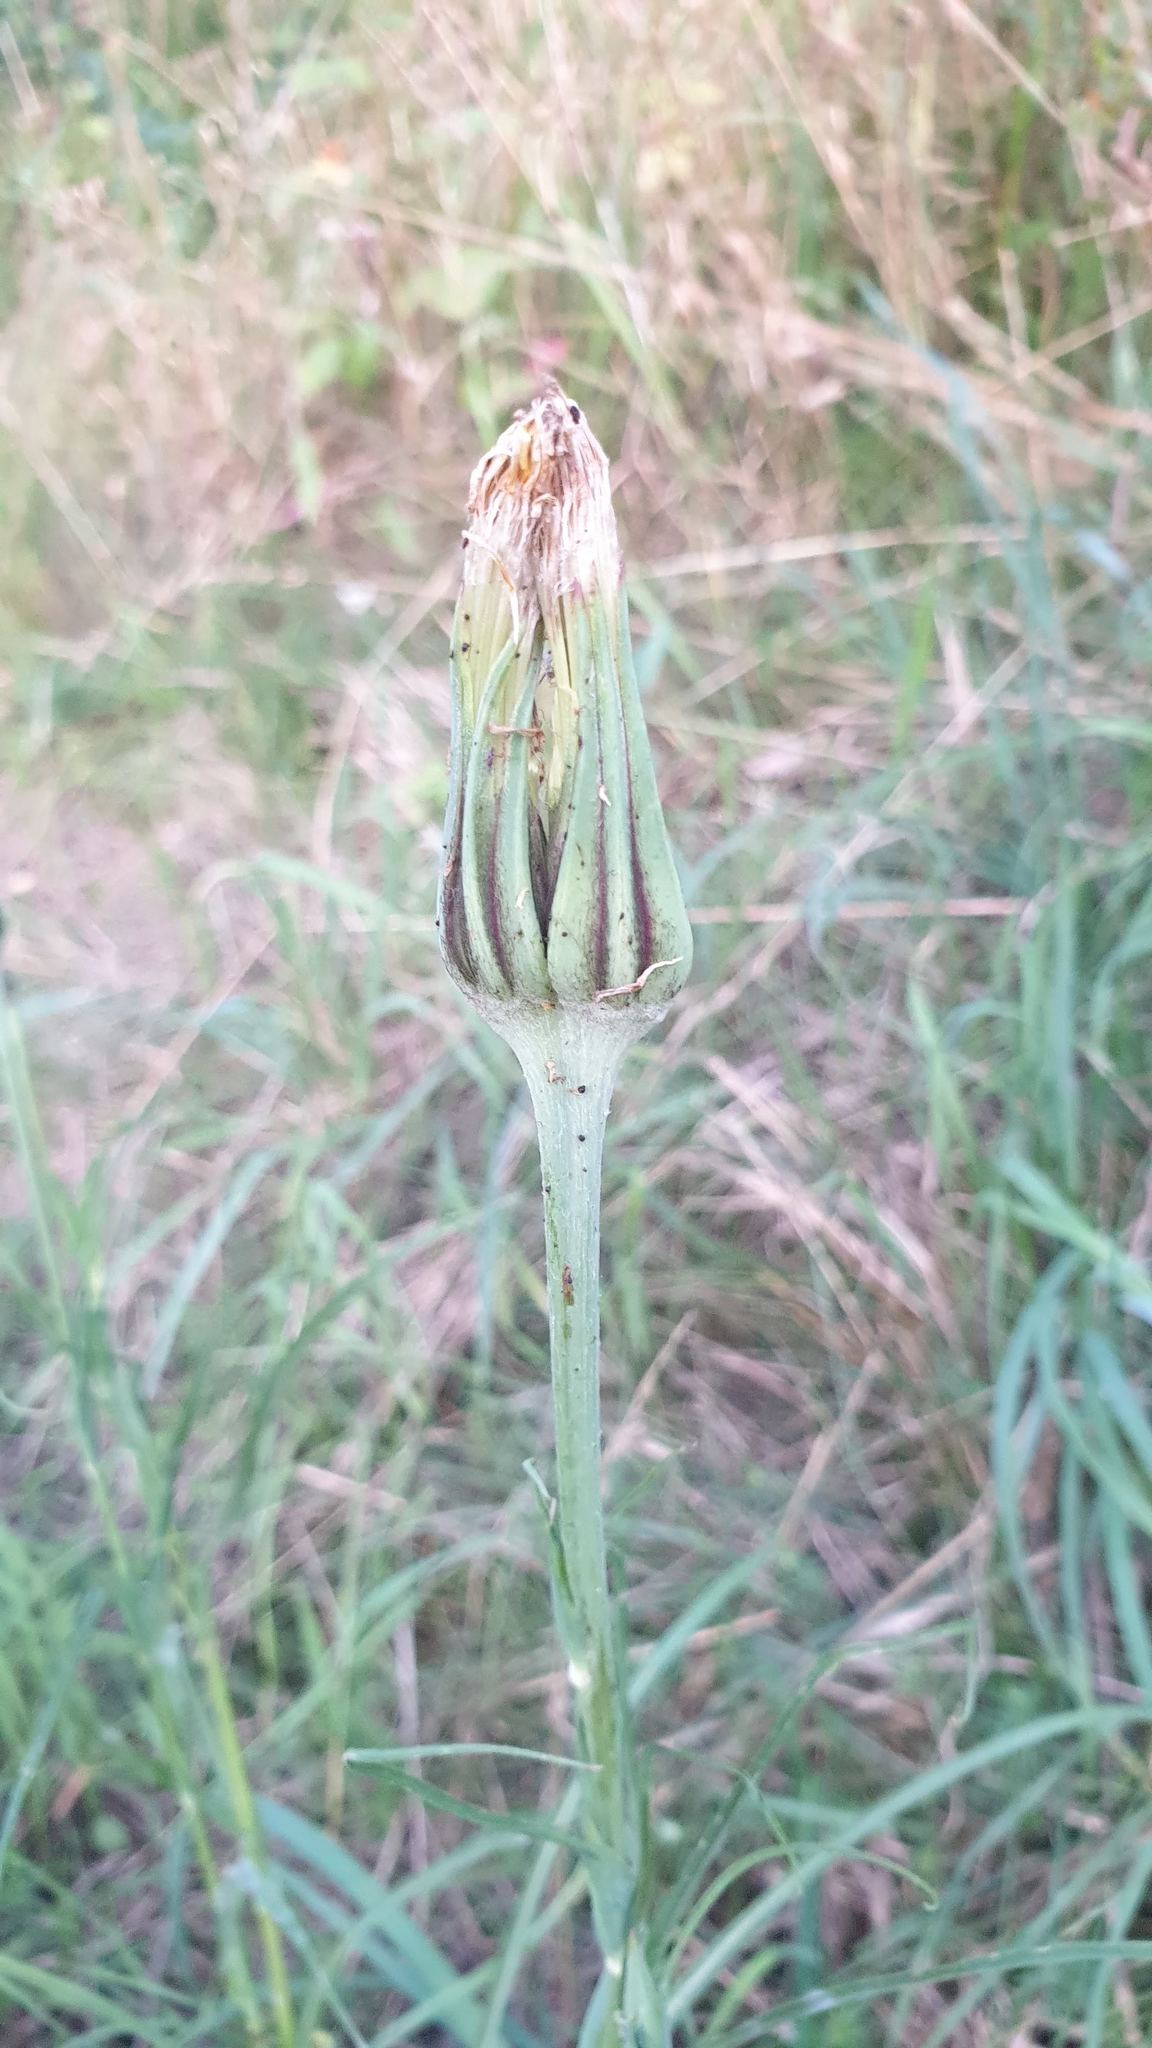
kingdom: Plantae
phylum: Tracheophyta
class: Magnoliopsida
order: Asterales
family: Asteraceae
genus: Tragopogon
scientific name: Tragopogon pratensis
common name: Goat's-beard
